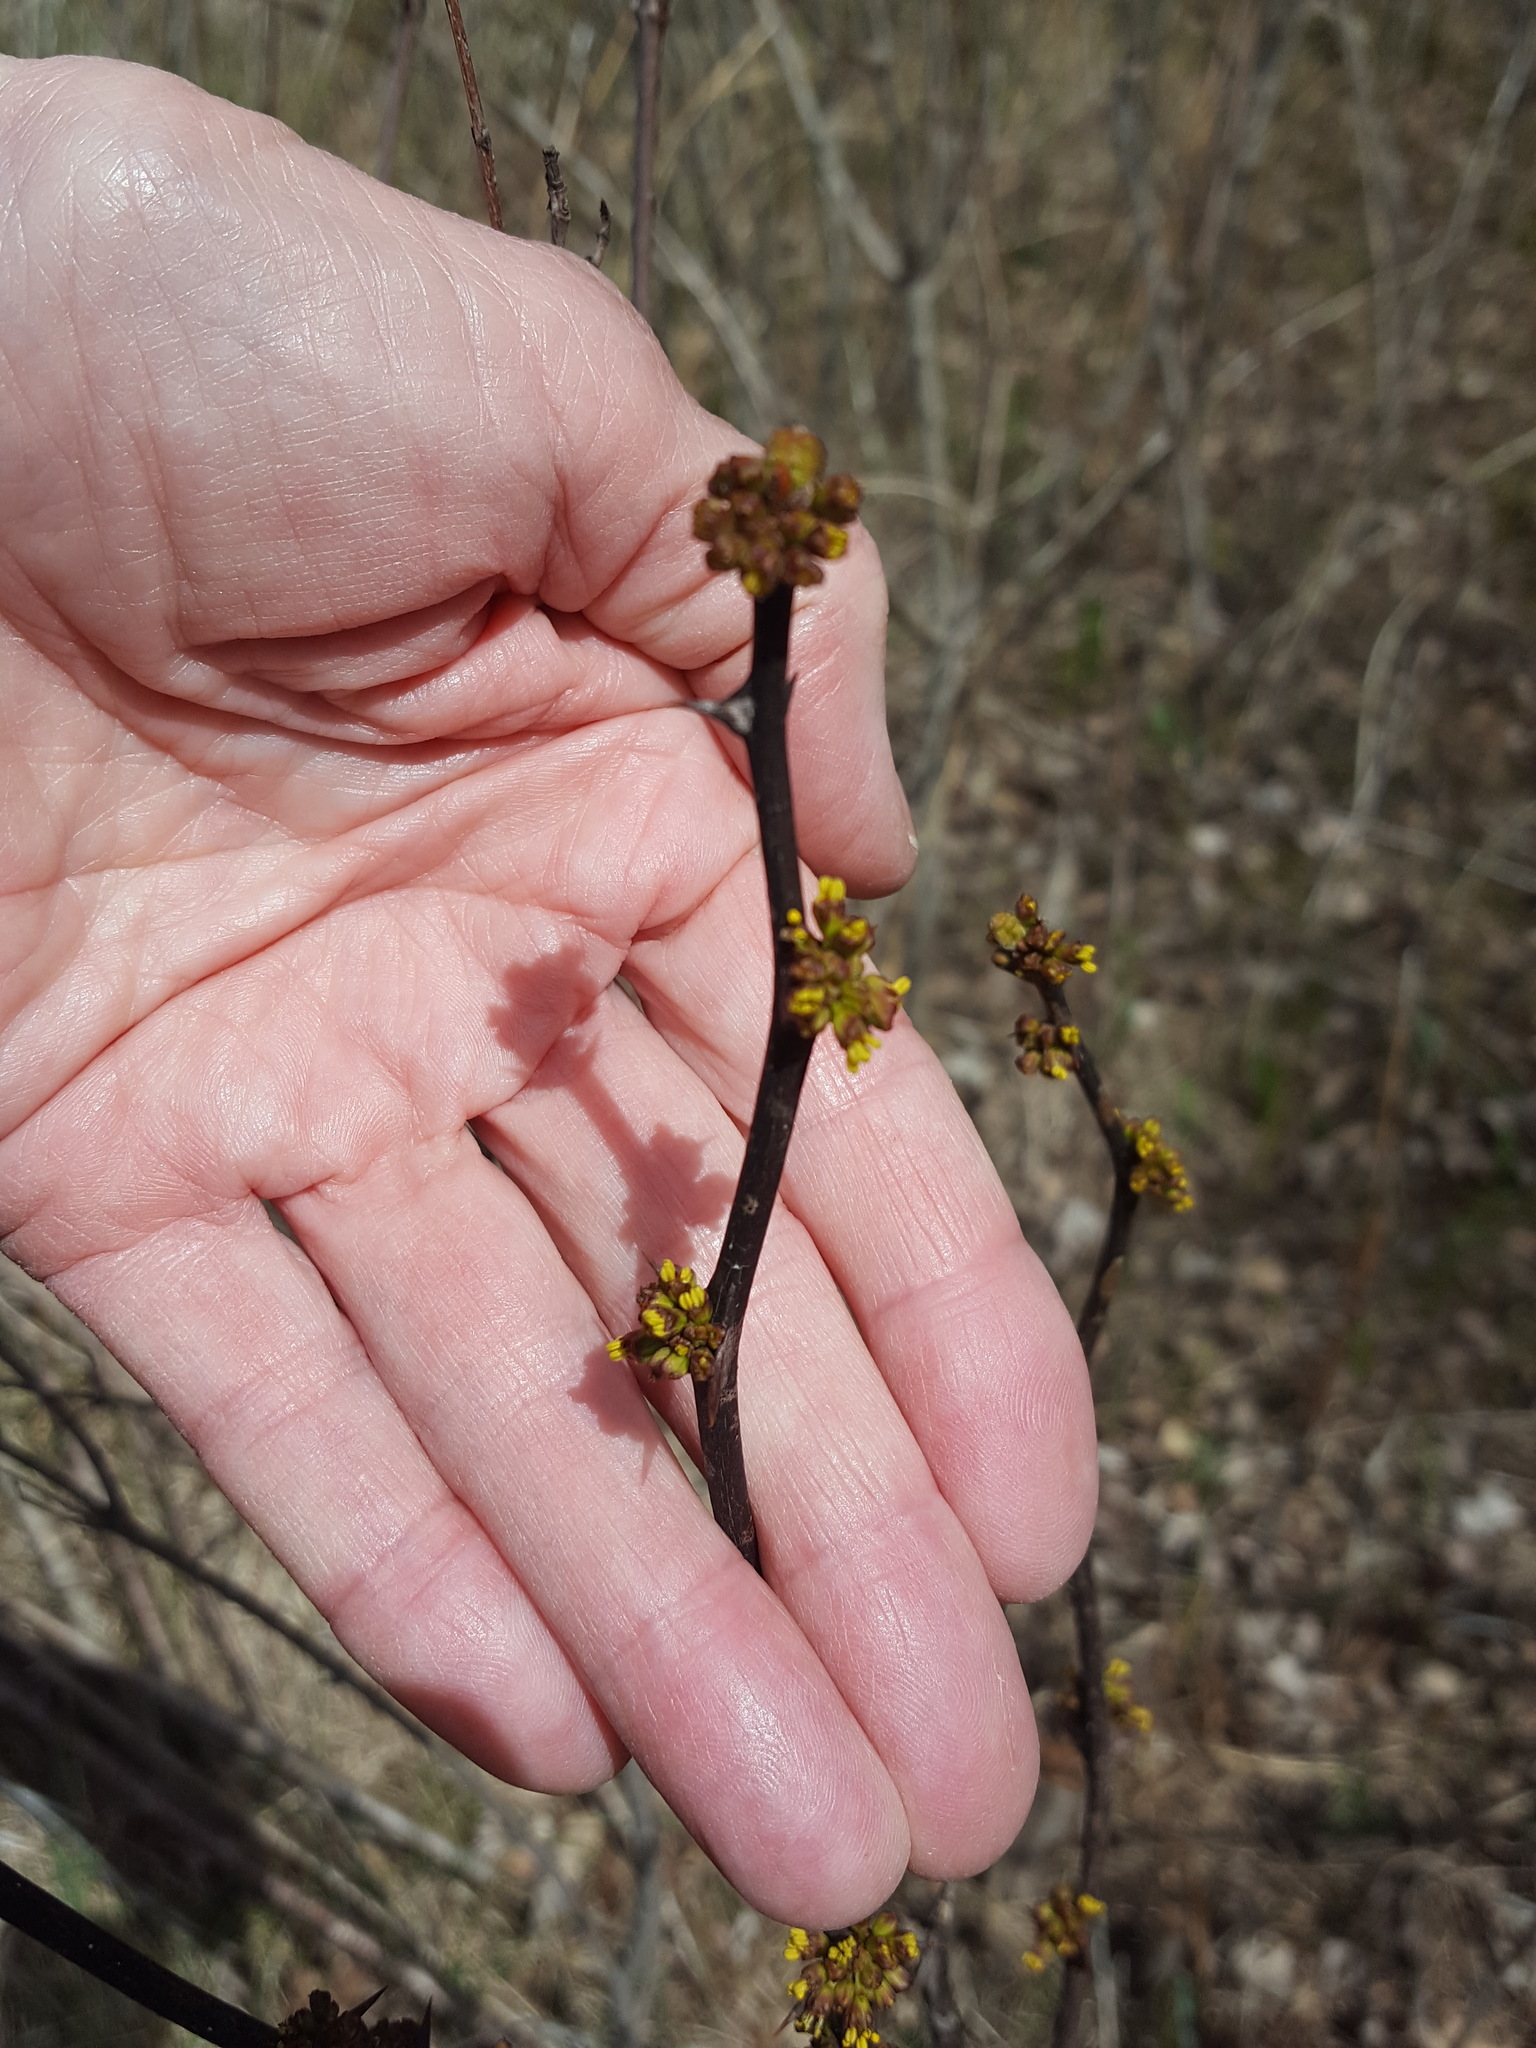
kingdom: Plantae
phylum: Tracheophyta
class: Magnoliopsida
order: Sapindales
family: Rutaceae
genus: Zanthoxylum
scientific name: Zanthoxylum americanum
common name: Northern prickly-ash
